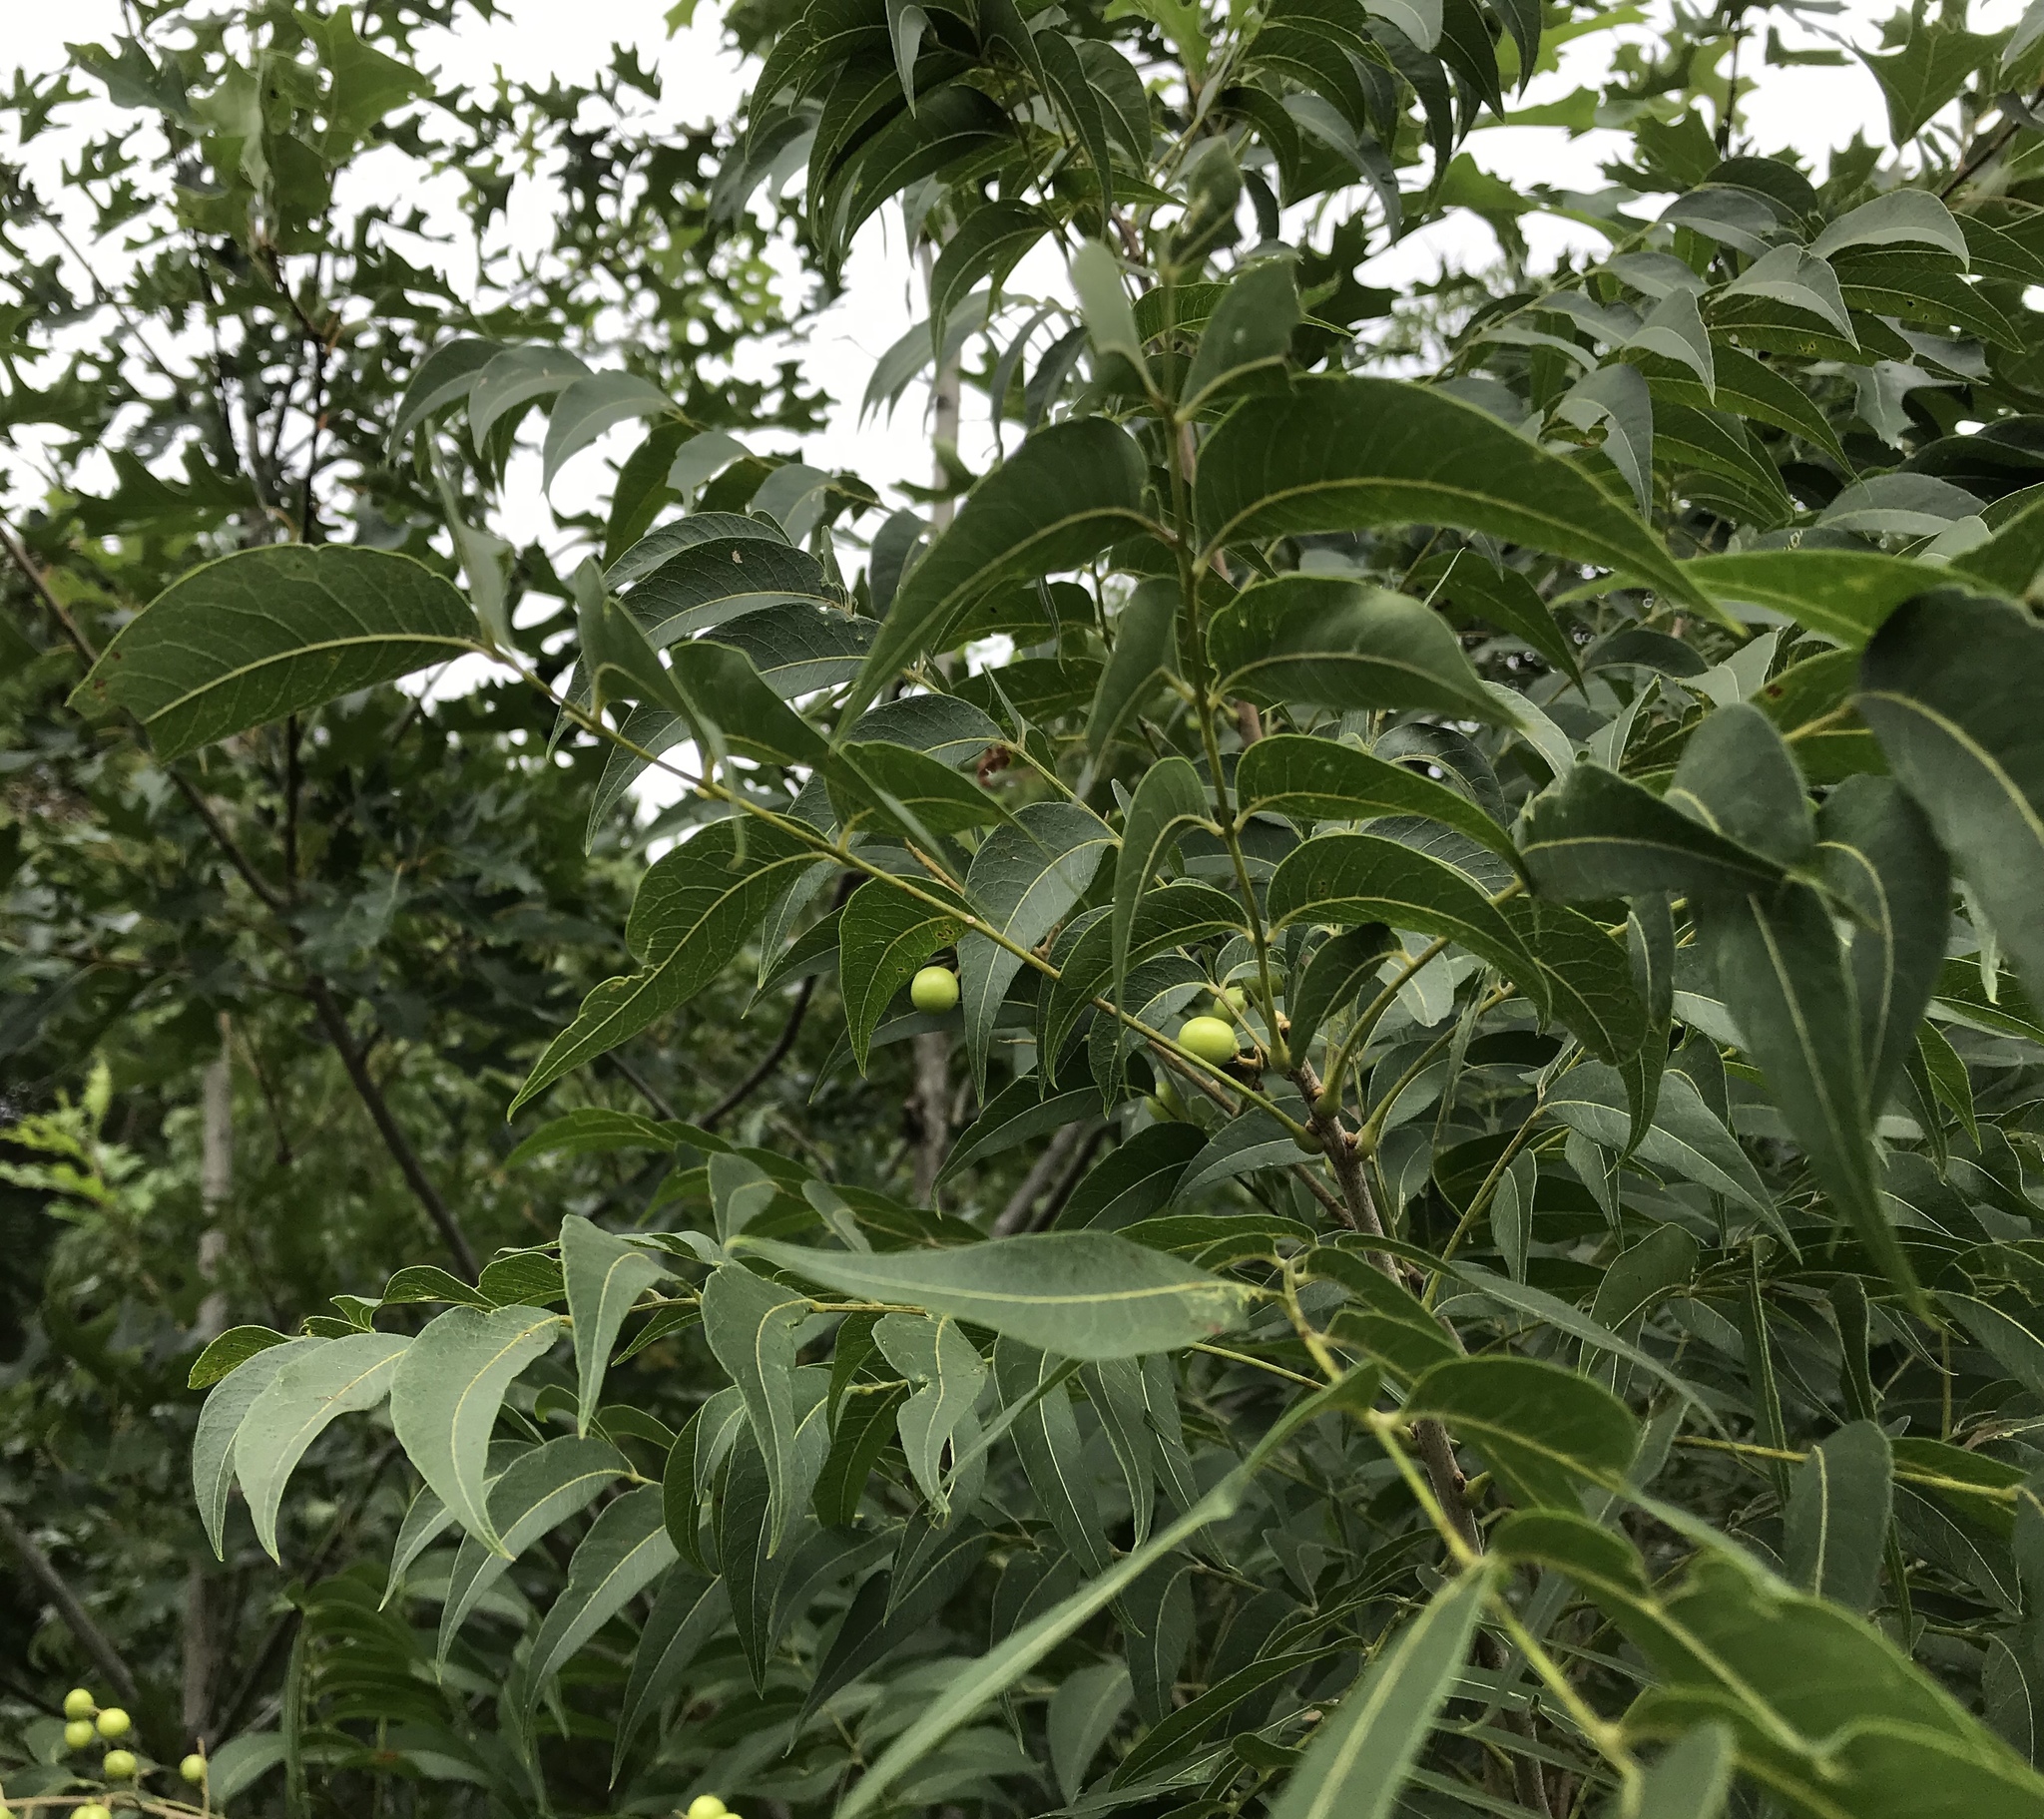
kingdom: Plantae
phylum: Tracheophyta
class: Magnoliopsida
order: Sapindales
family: Sapindaceae
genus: Sapindus
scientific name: Sapindus drummondii
